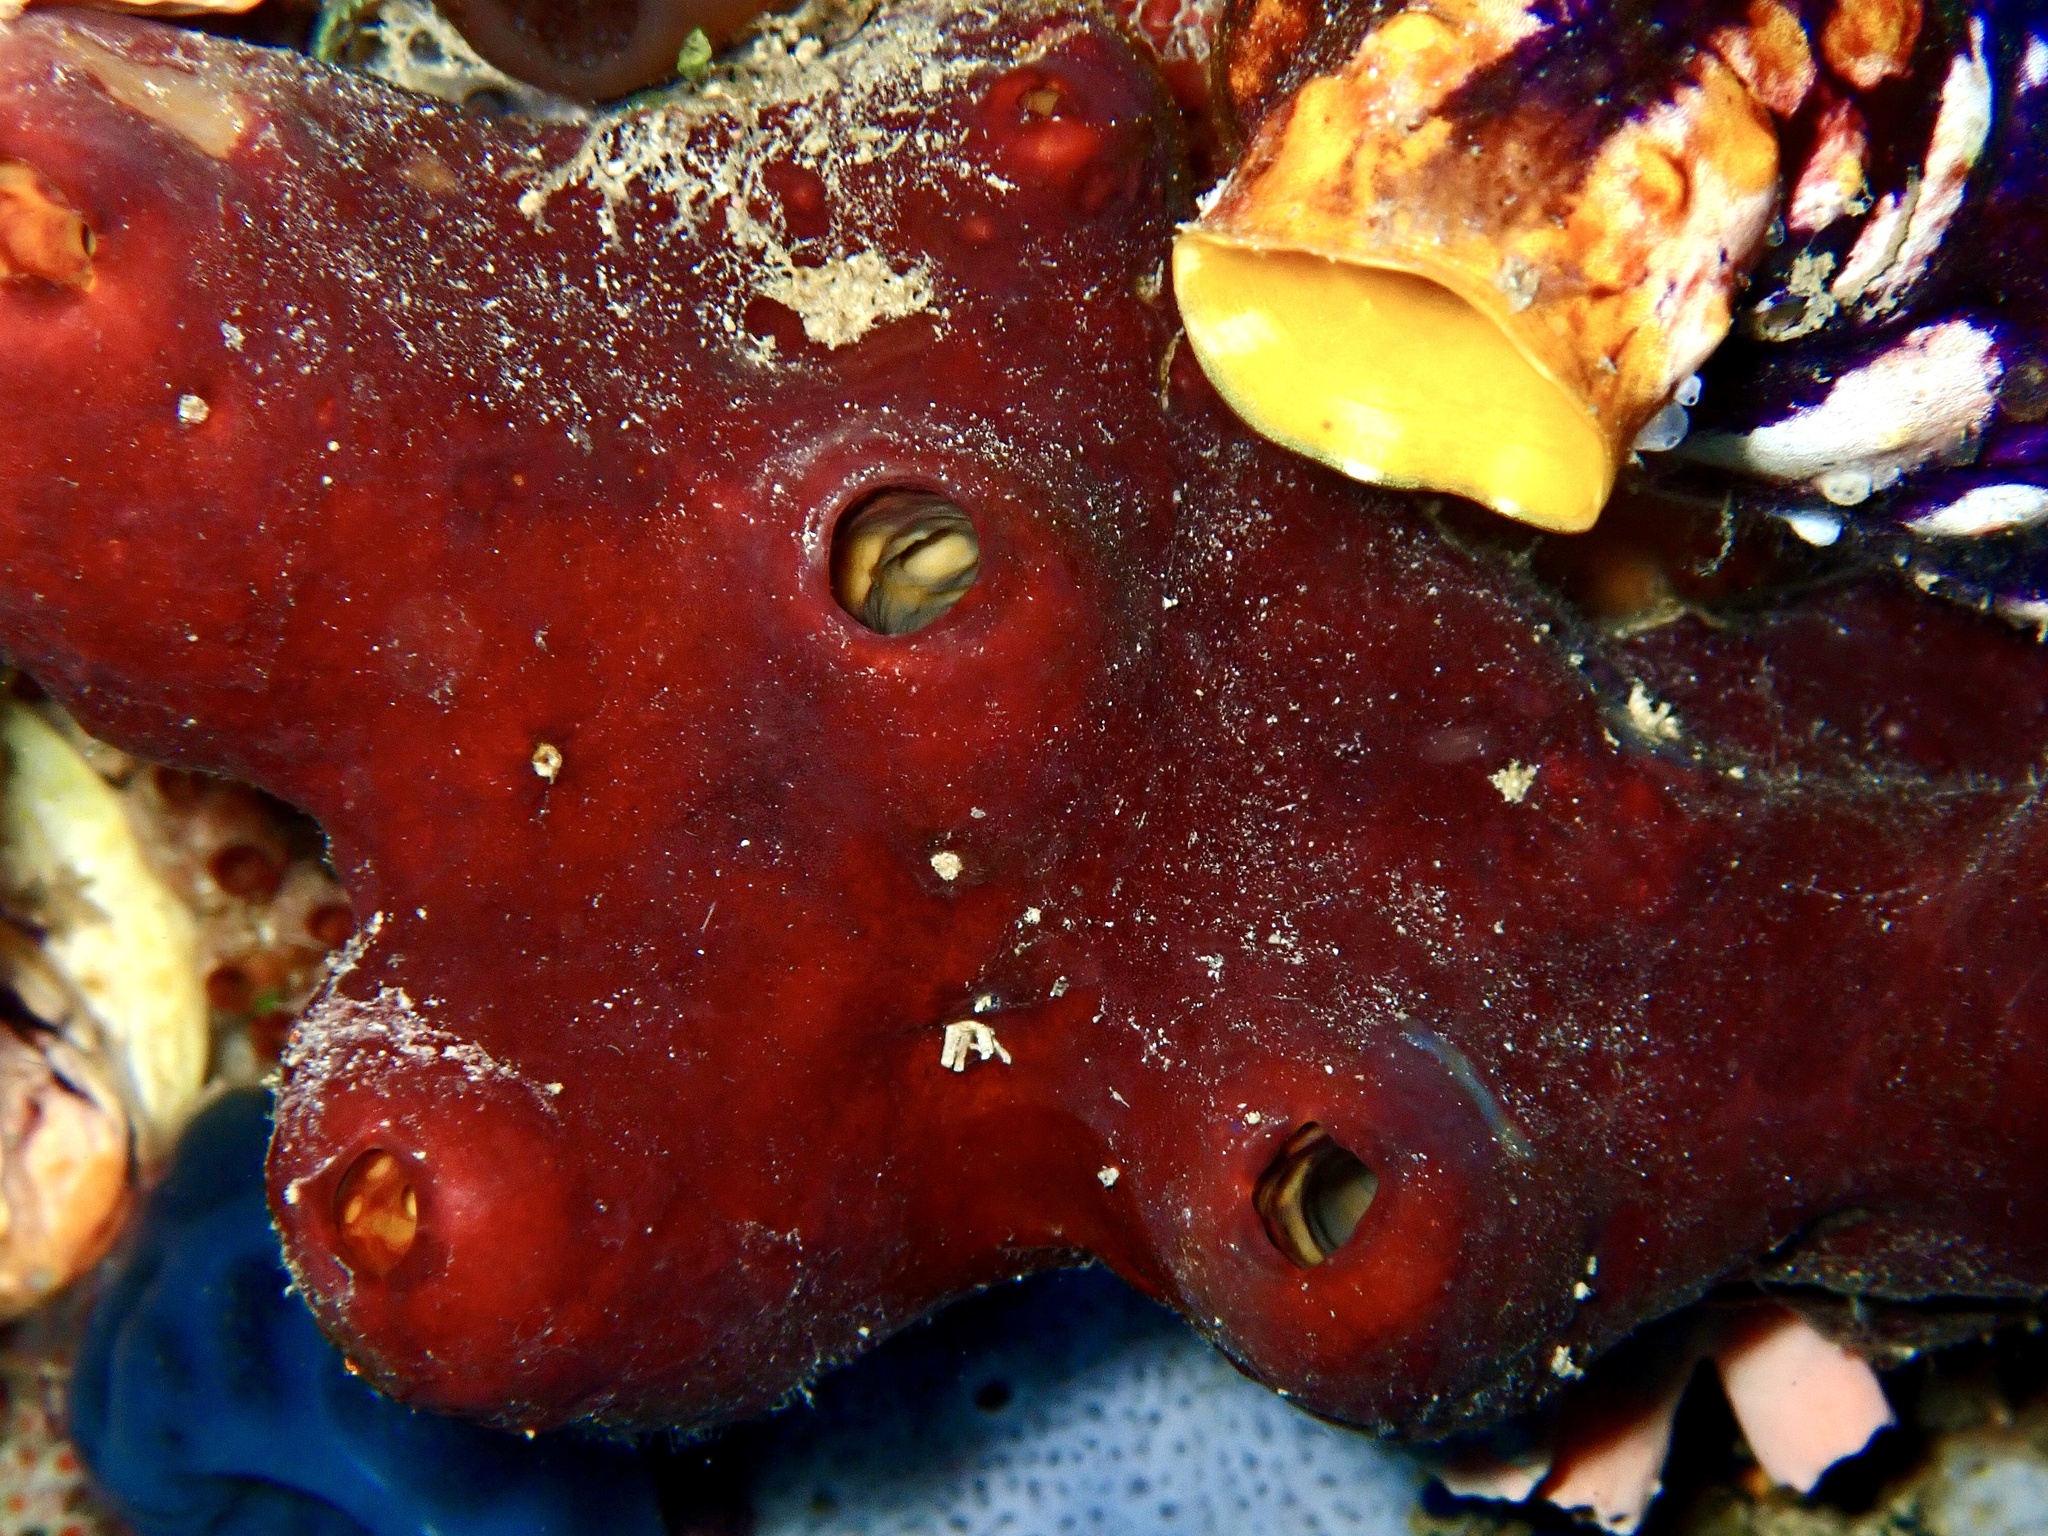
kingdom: Animalia
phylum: Porifera
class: Demospongiae
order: Tetractinellida
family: Theonellidae
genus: Theonella
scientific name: Theonella swinhoei
